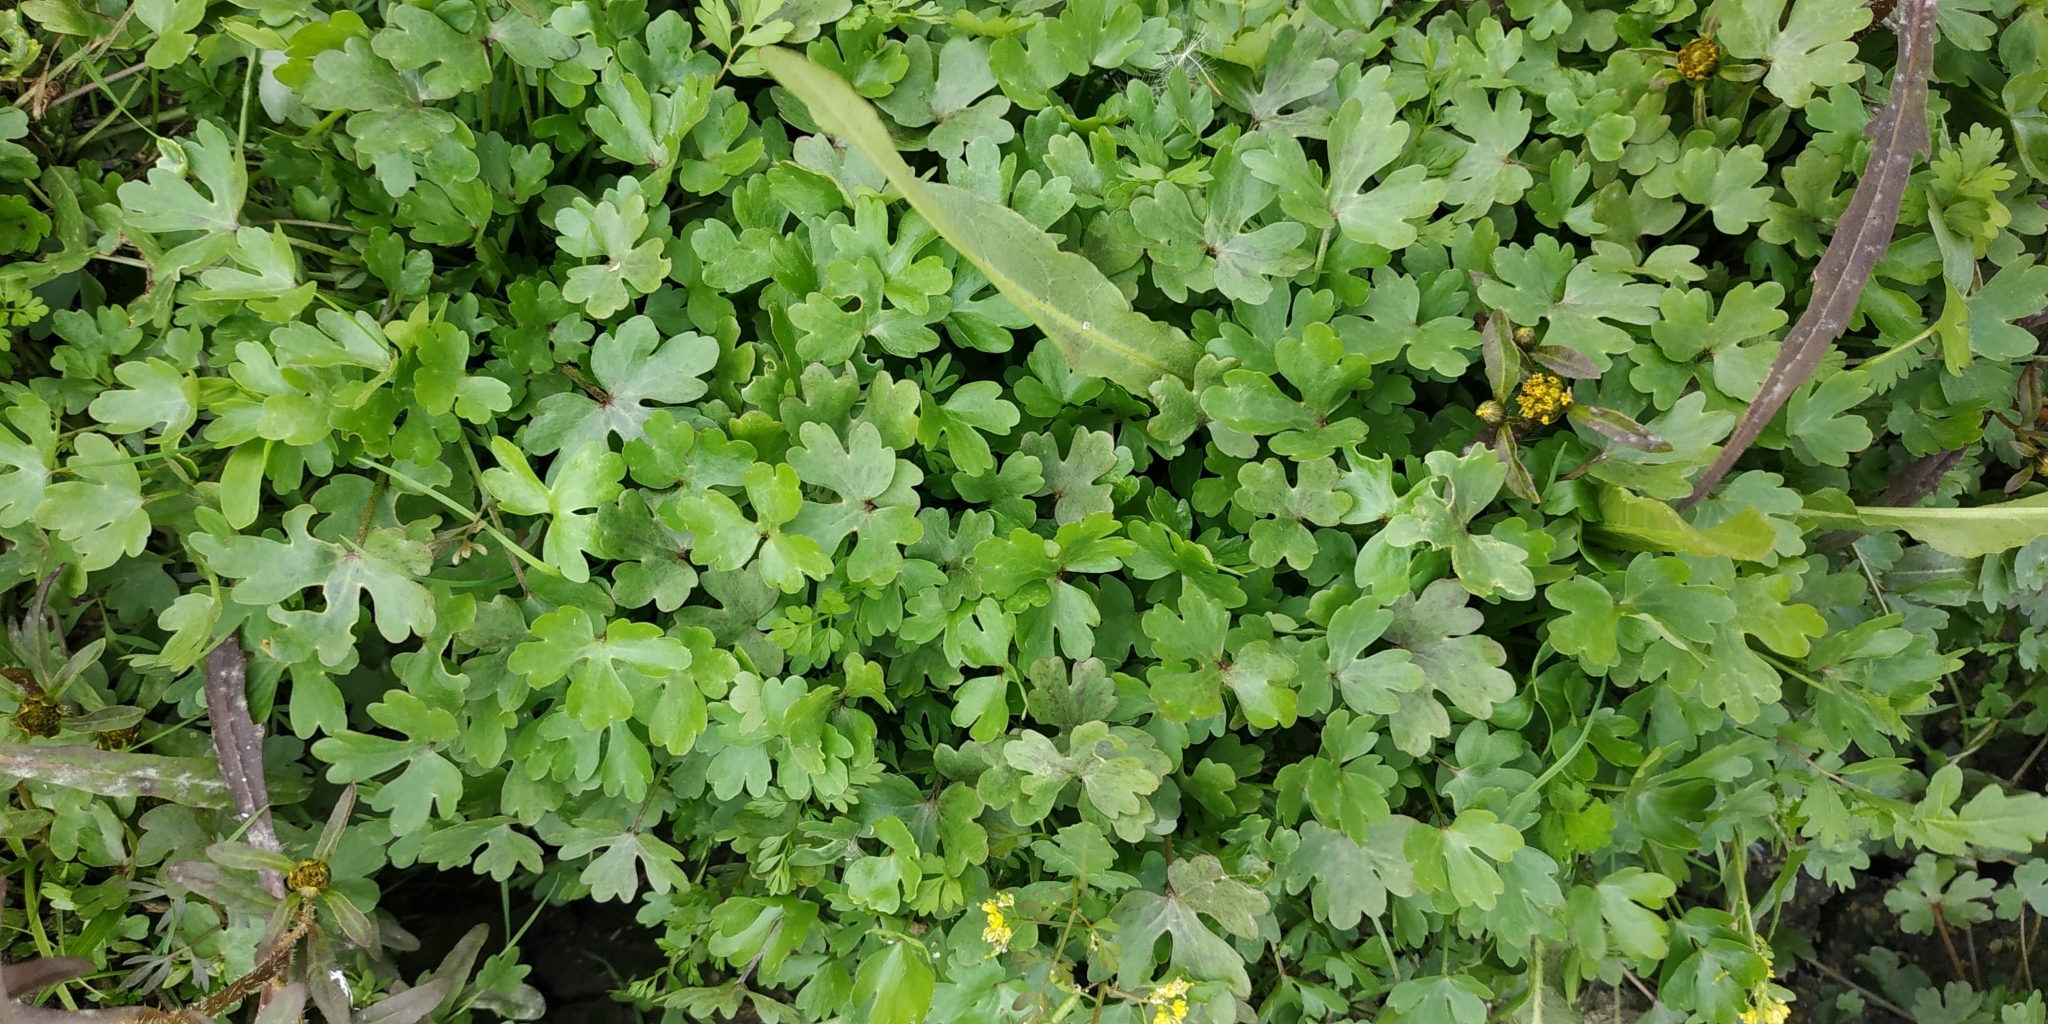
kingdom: Plantae
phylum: Tracheophyta
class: Magnoliopsida
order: Ranunculales
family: Ranunculaceae
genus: Ranunculus
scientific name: Ranunculus sceleratus
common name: Celery-leaved buttercup
